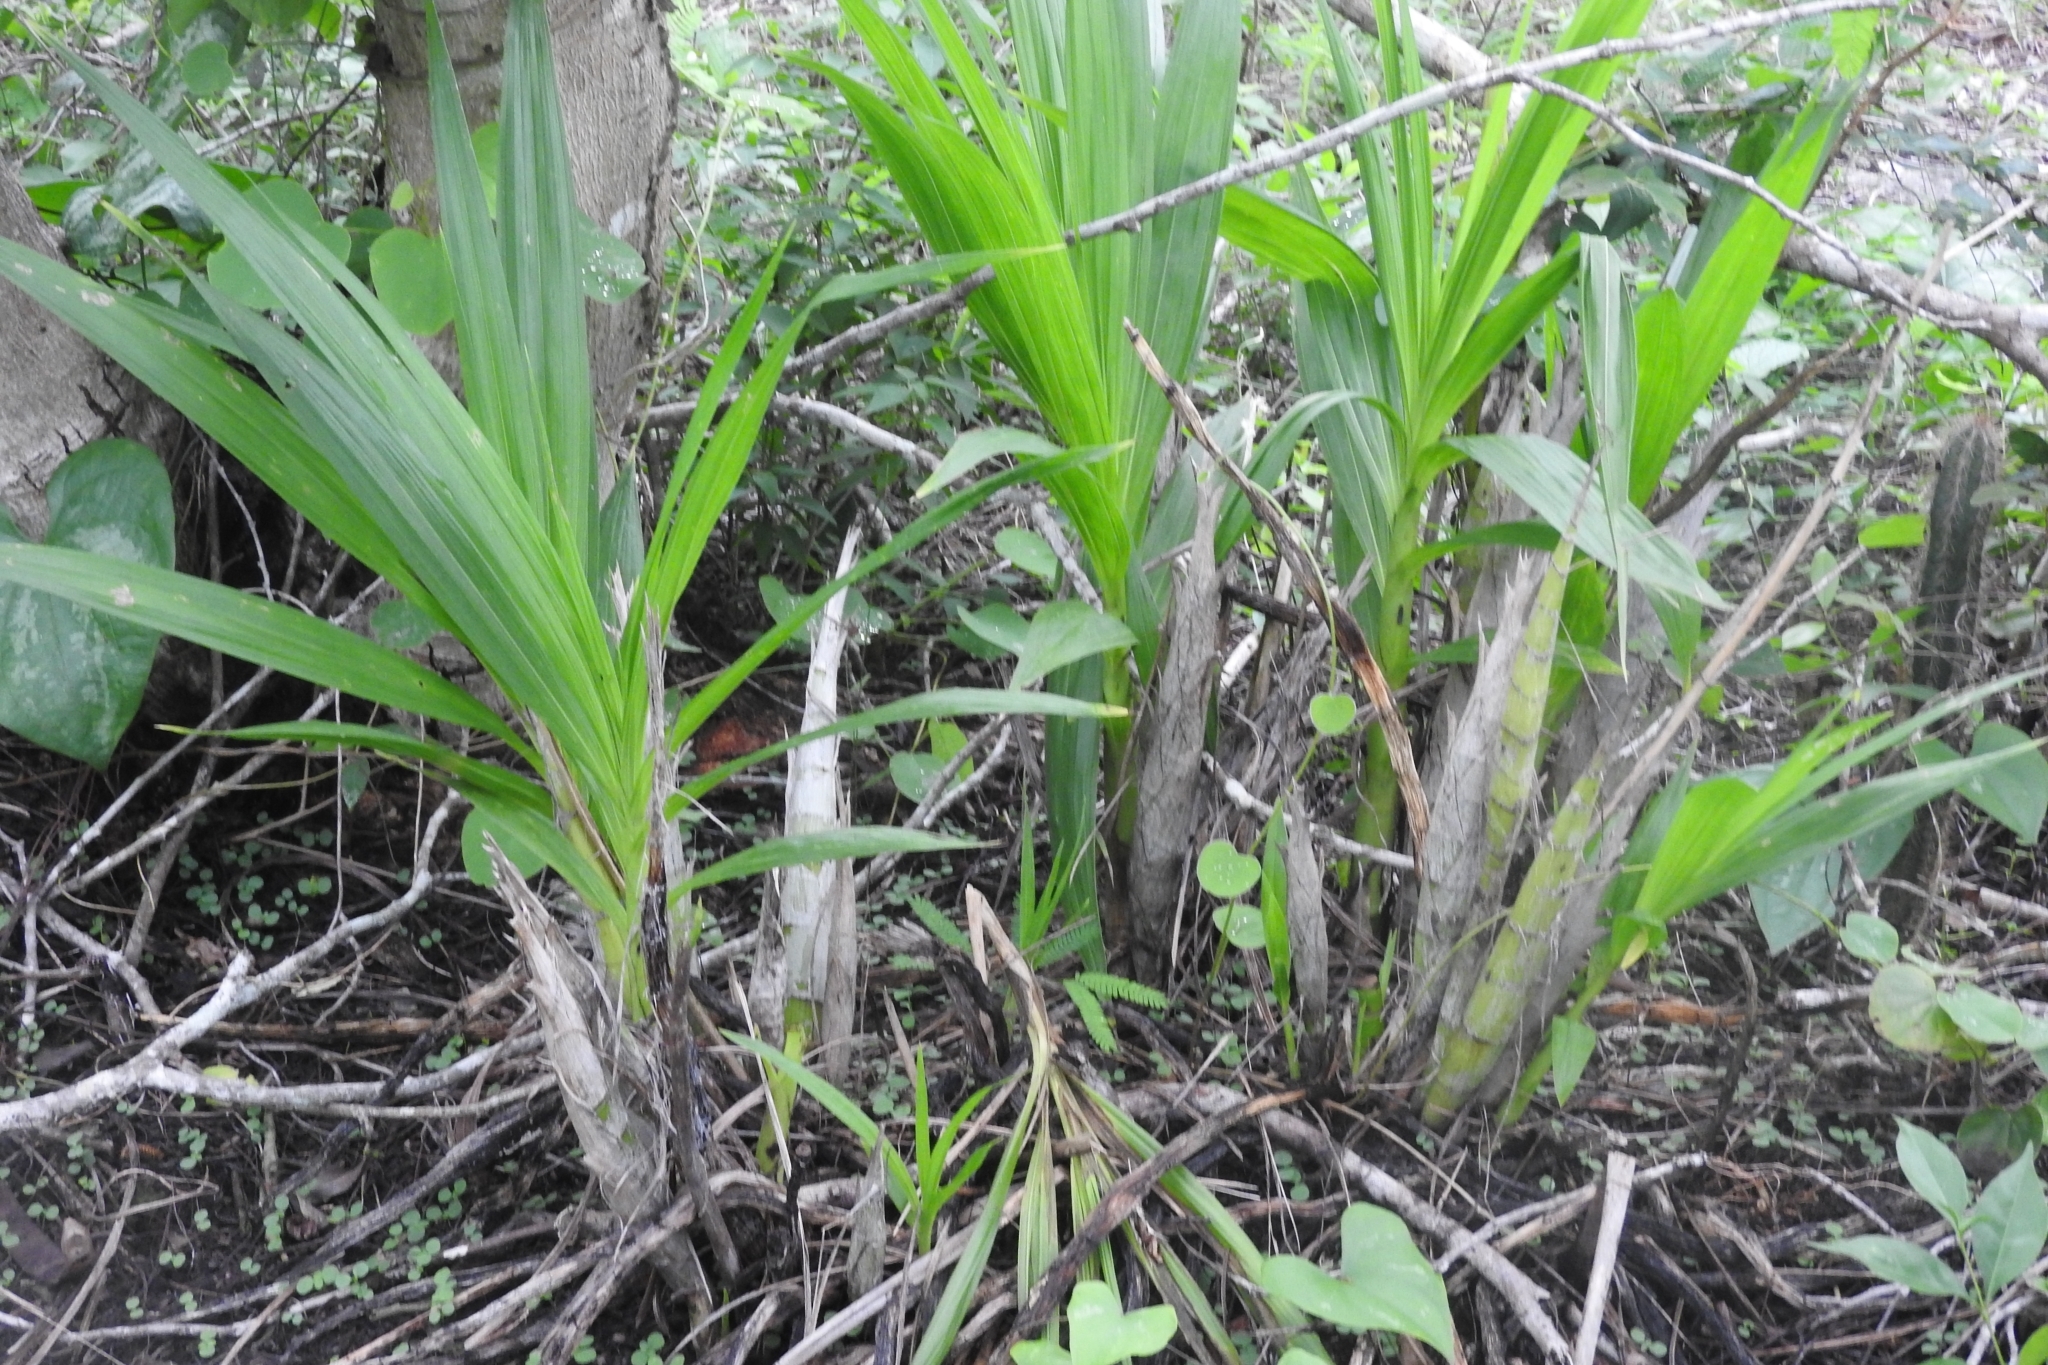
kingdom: Plantae
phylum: Tracheophyta
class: Liliopsida
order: Asparagales
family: Orchidaceae
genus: Cyrtopodium
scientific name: Cyrtopodium macrobulbon
